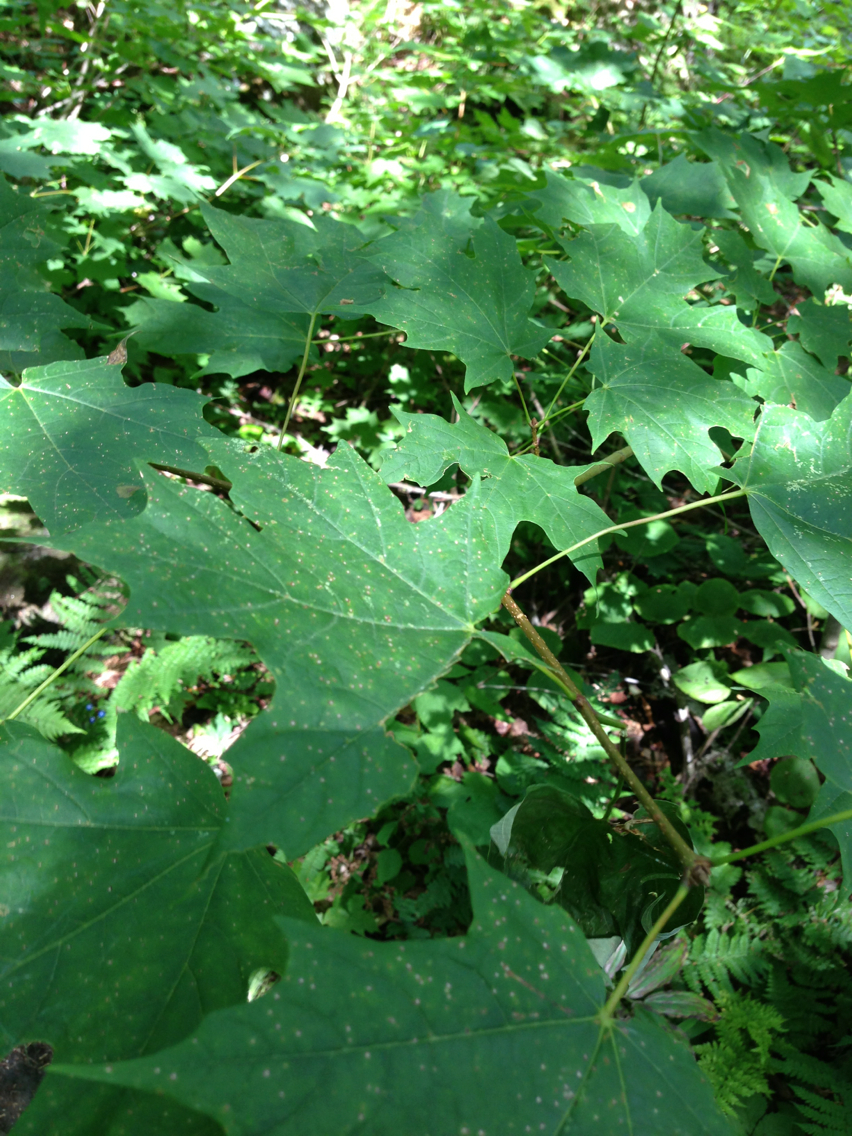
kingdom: Plantae
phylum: Tracheophyta
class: Magnoliopsida
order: Sapindales
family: Sapindaceae
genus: Acer
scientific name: Acer saccharum
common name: Sugar maple
